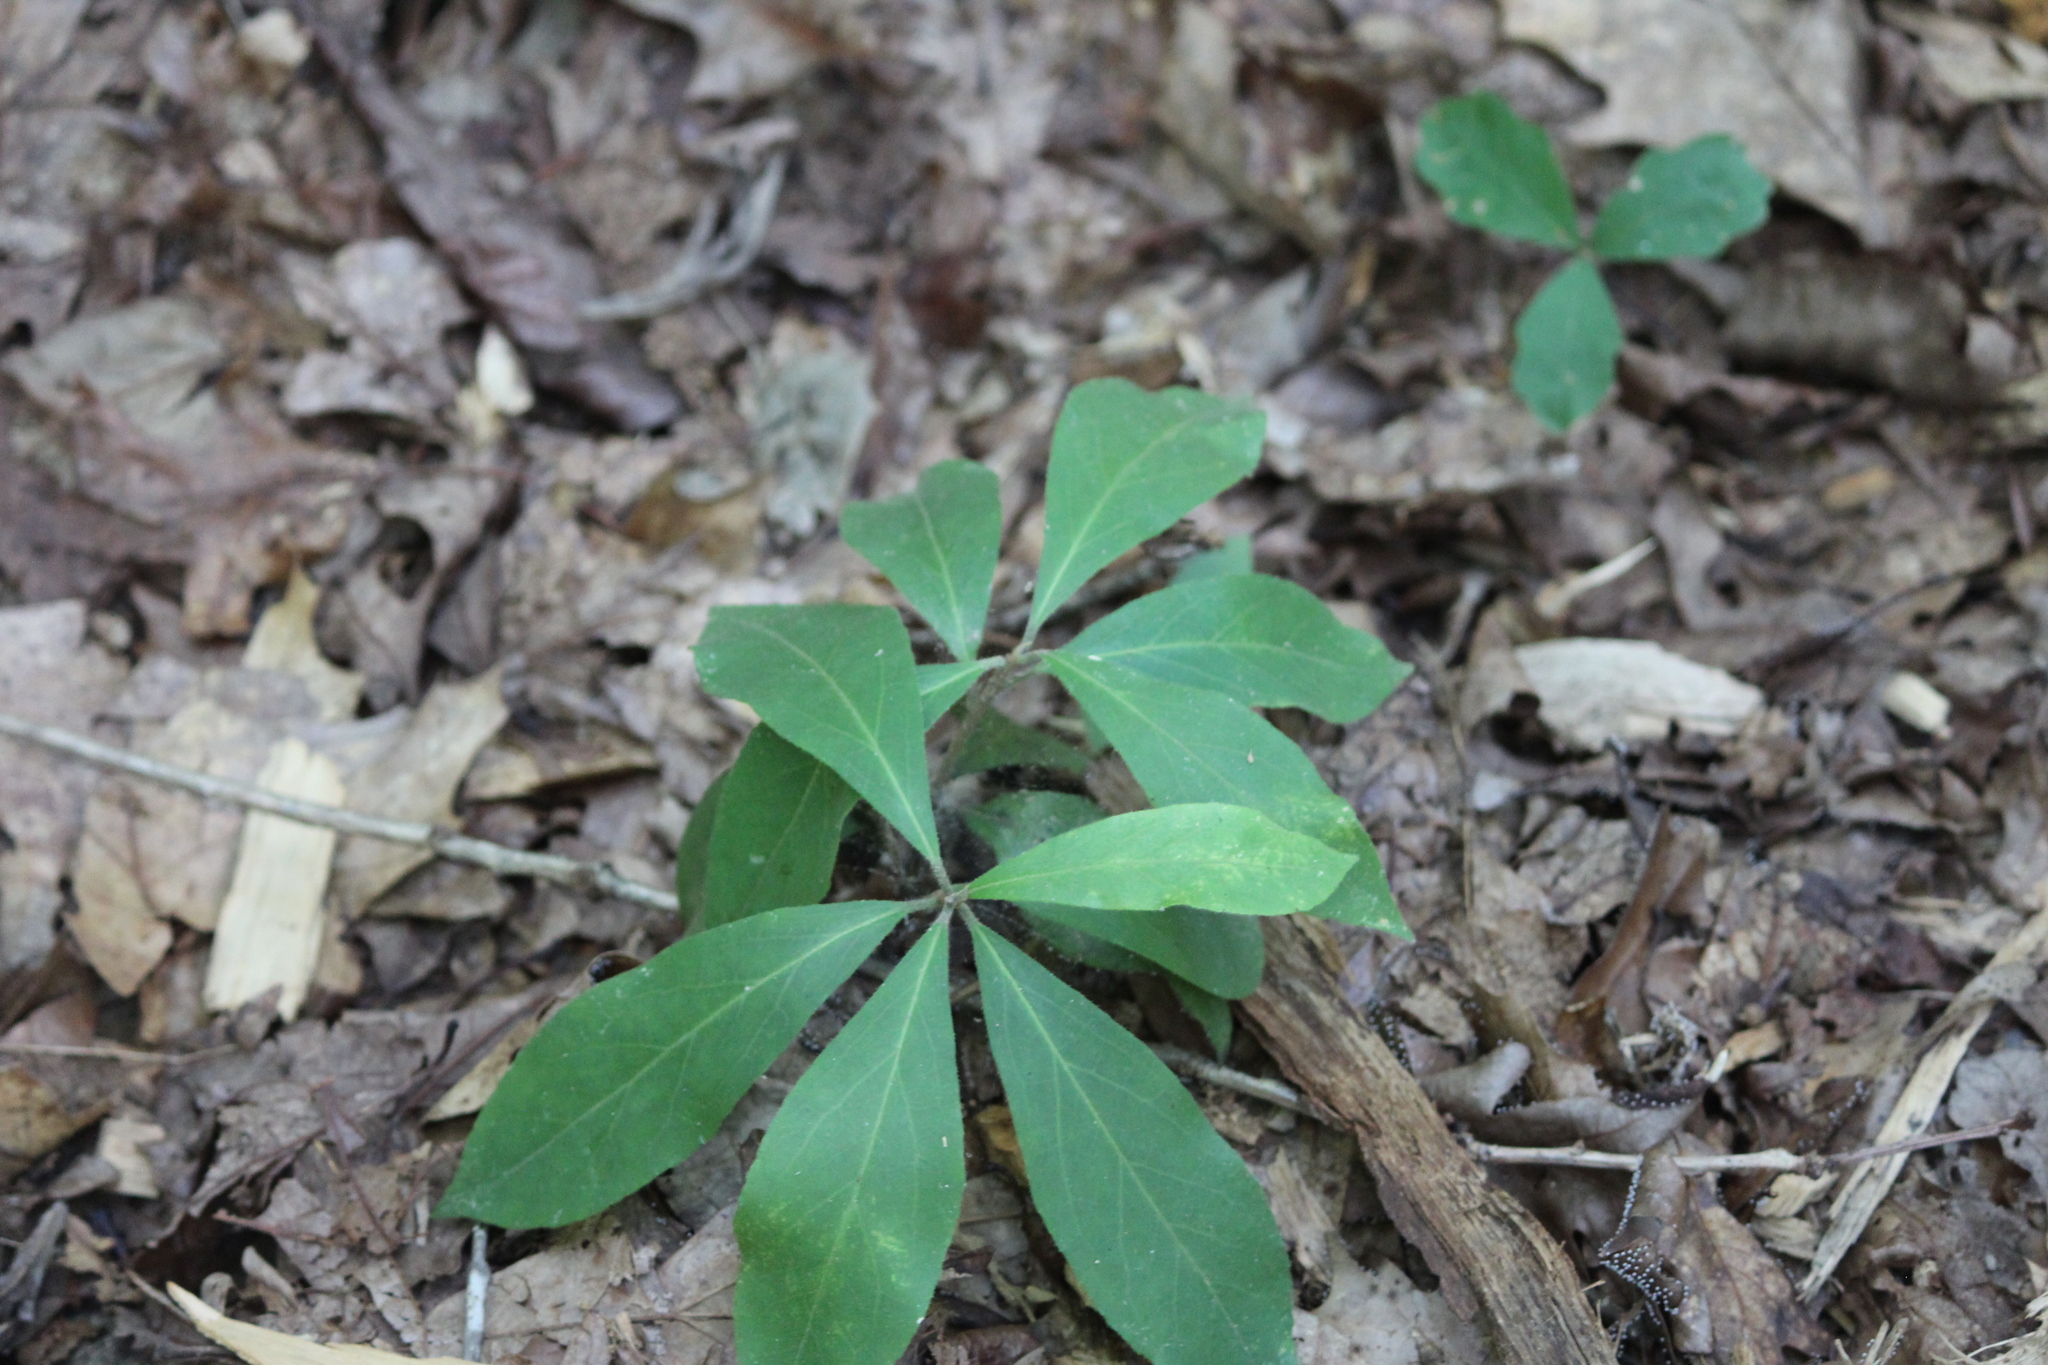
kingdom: Plantae
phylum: Tracheophyta
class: Magnoliopsida
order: Ericales
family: Symplocaceae
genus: Symplocos
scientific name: Symplocos tinctoria
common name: Horse-sugar
